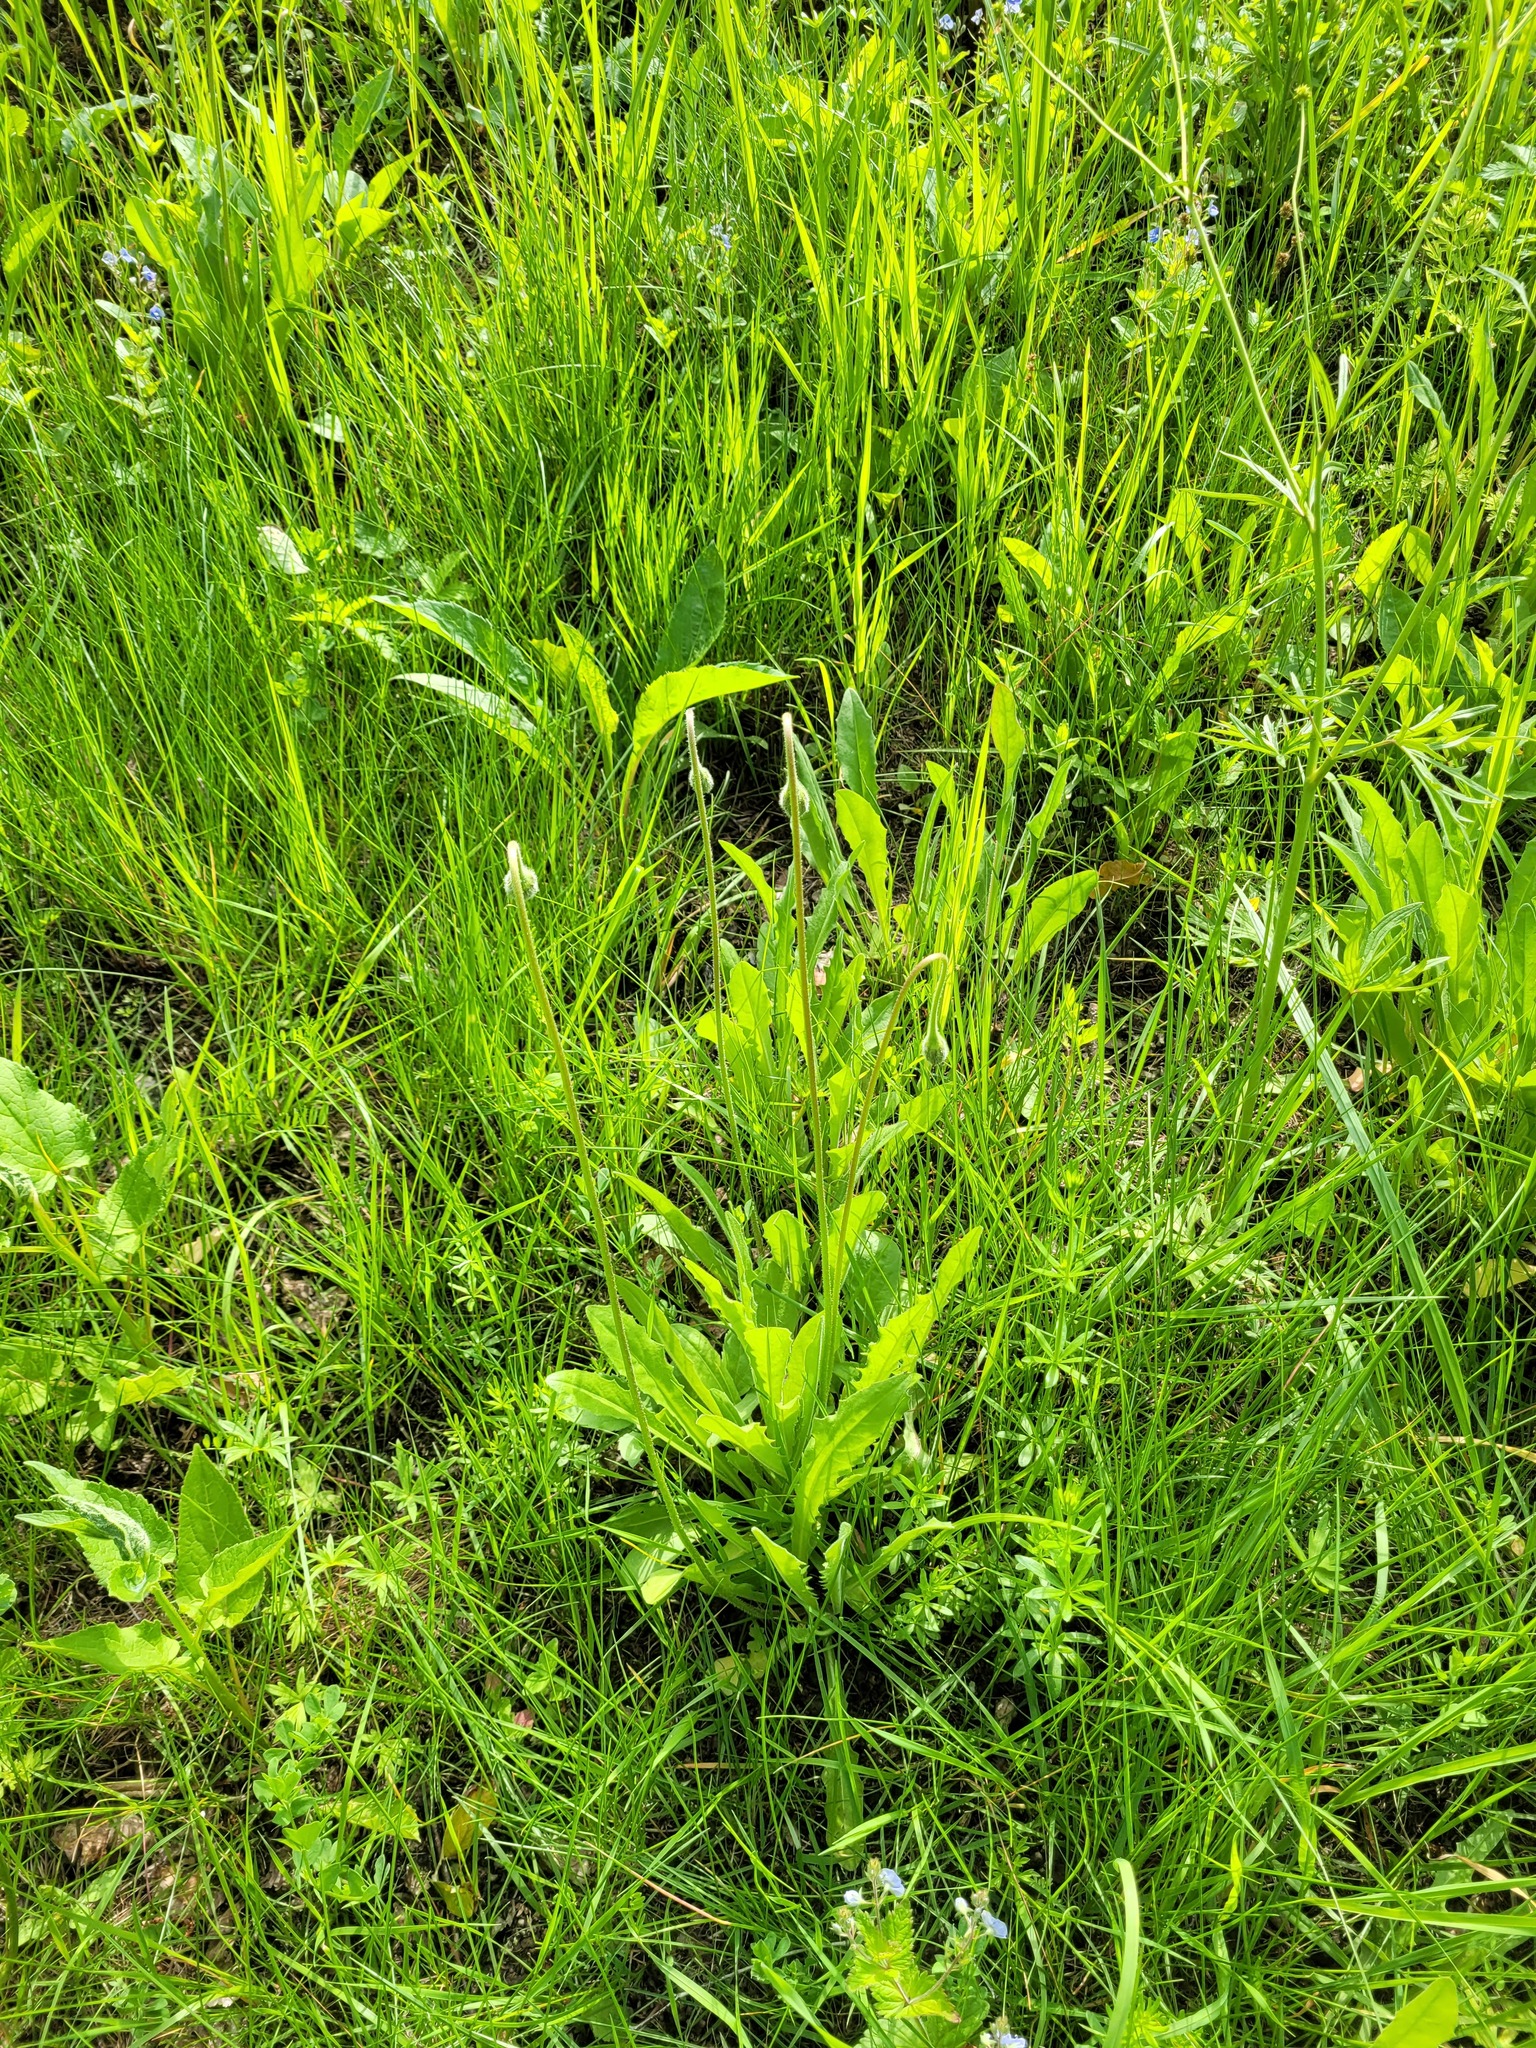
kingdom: Plantae
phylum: Tracheophyta
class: Magnoliopsida
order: Asterales
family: Asteraceae
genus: Leontodon
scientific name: Leontodon hispidus
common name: Rough hawkbit
